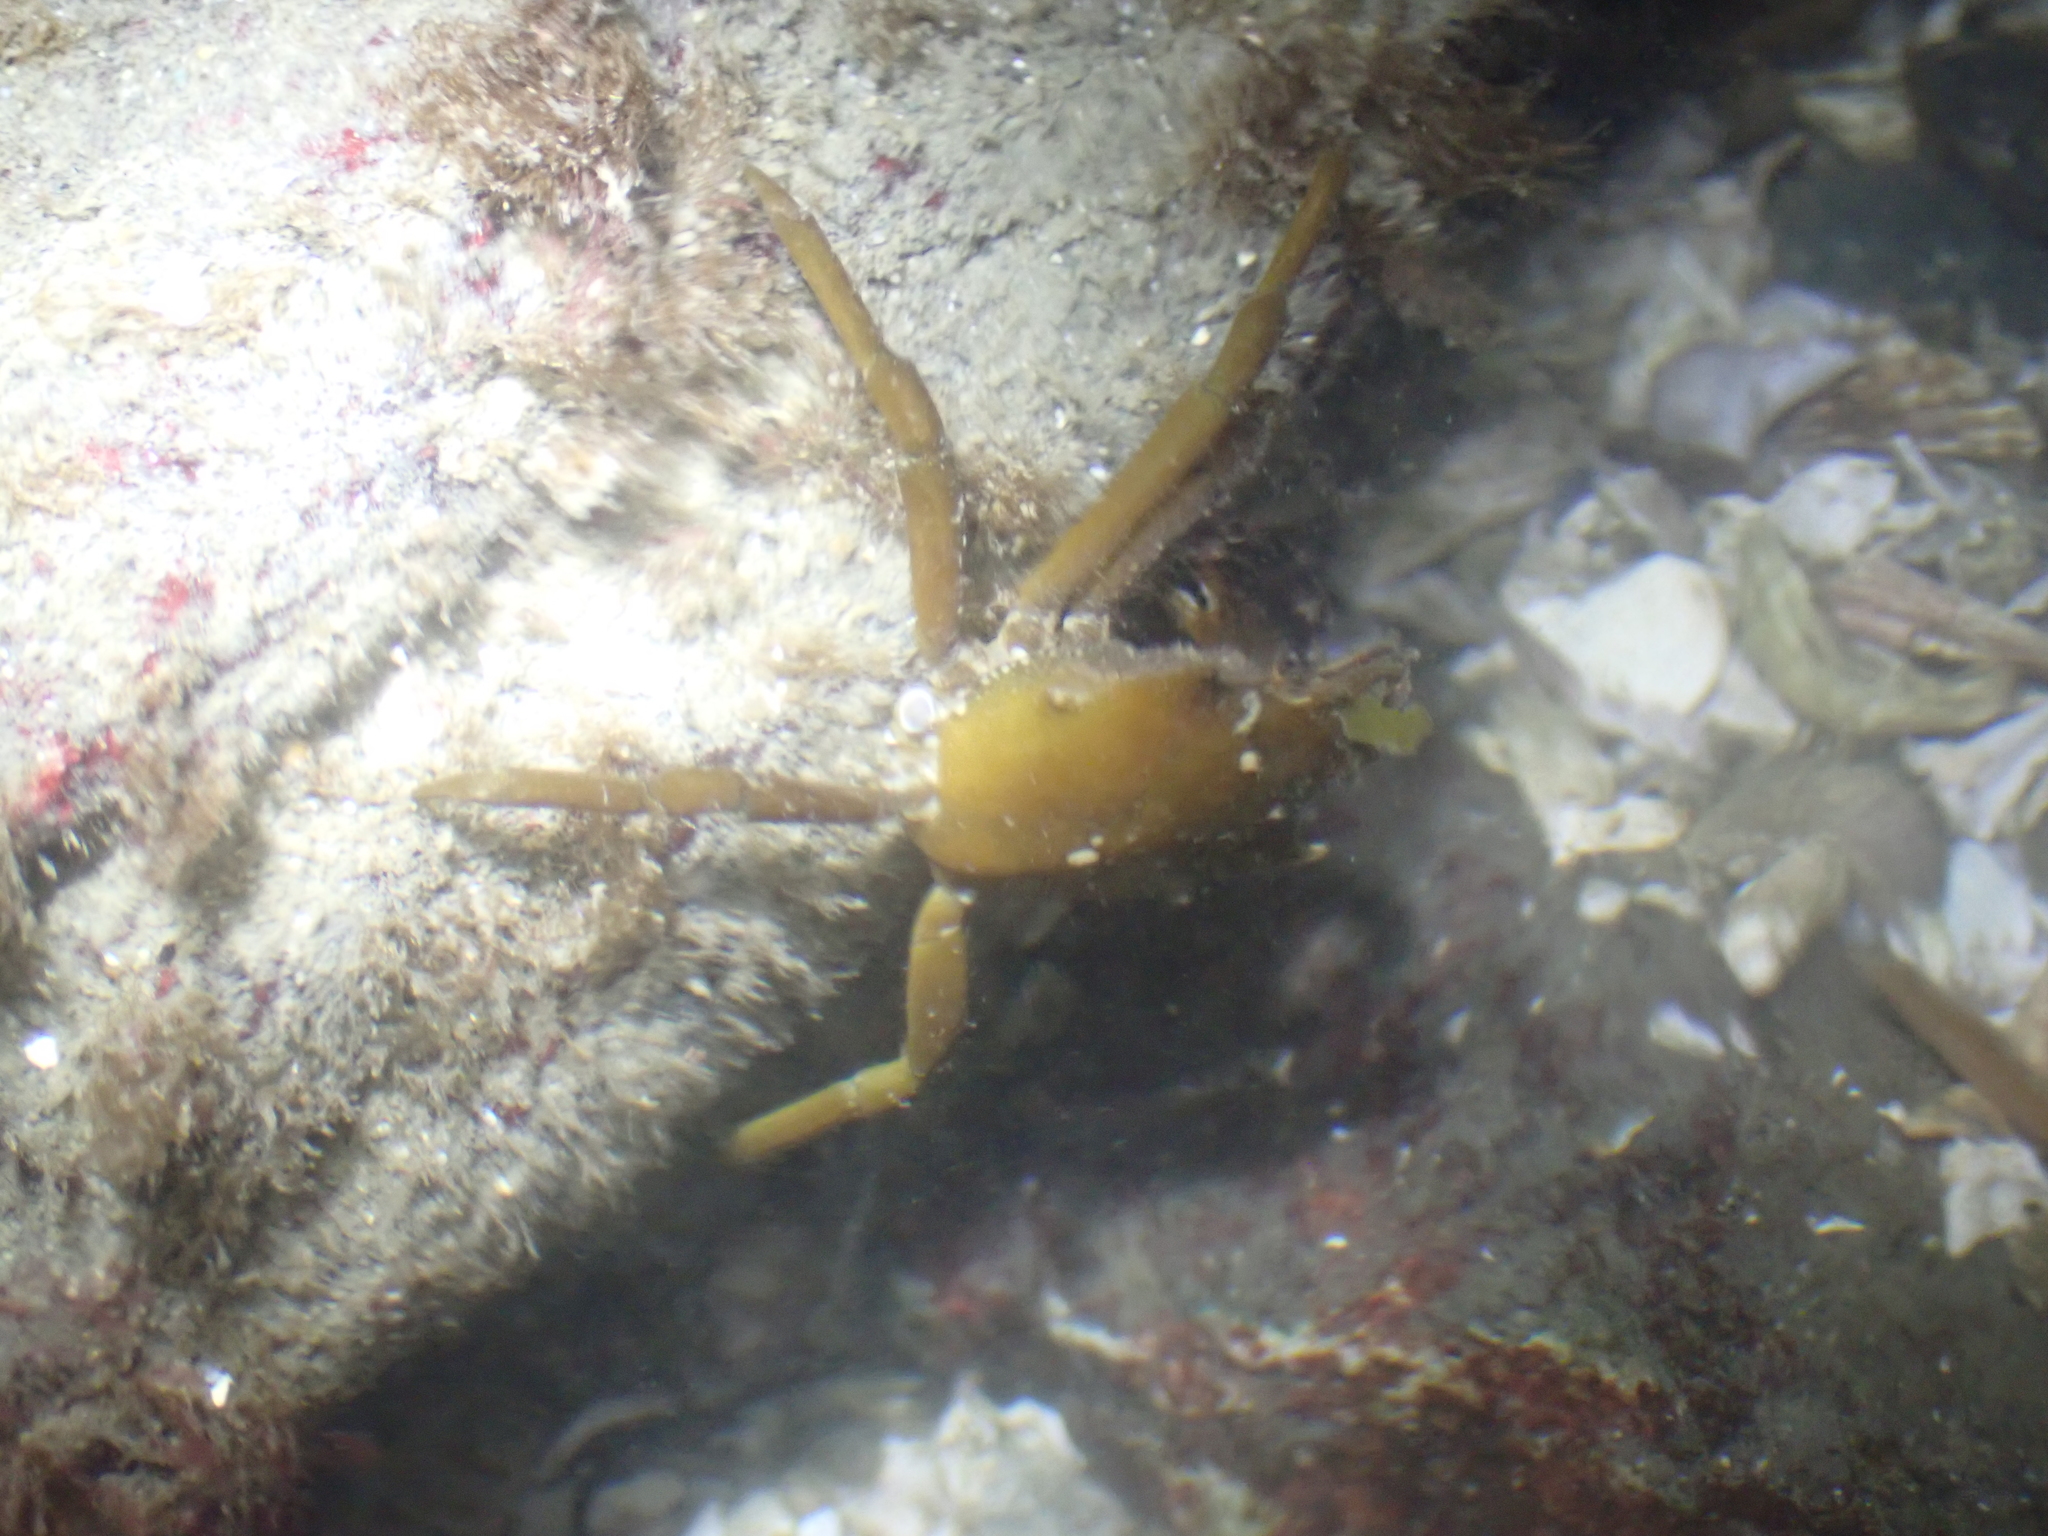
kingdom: Animalia
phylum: Arthropoda
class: Malacostraca
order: Decapoda
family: Epialtidae
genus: Pugettia
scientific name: Pugettia producta
